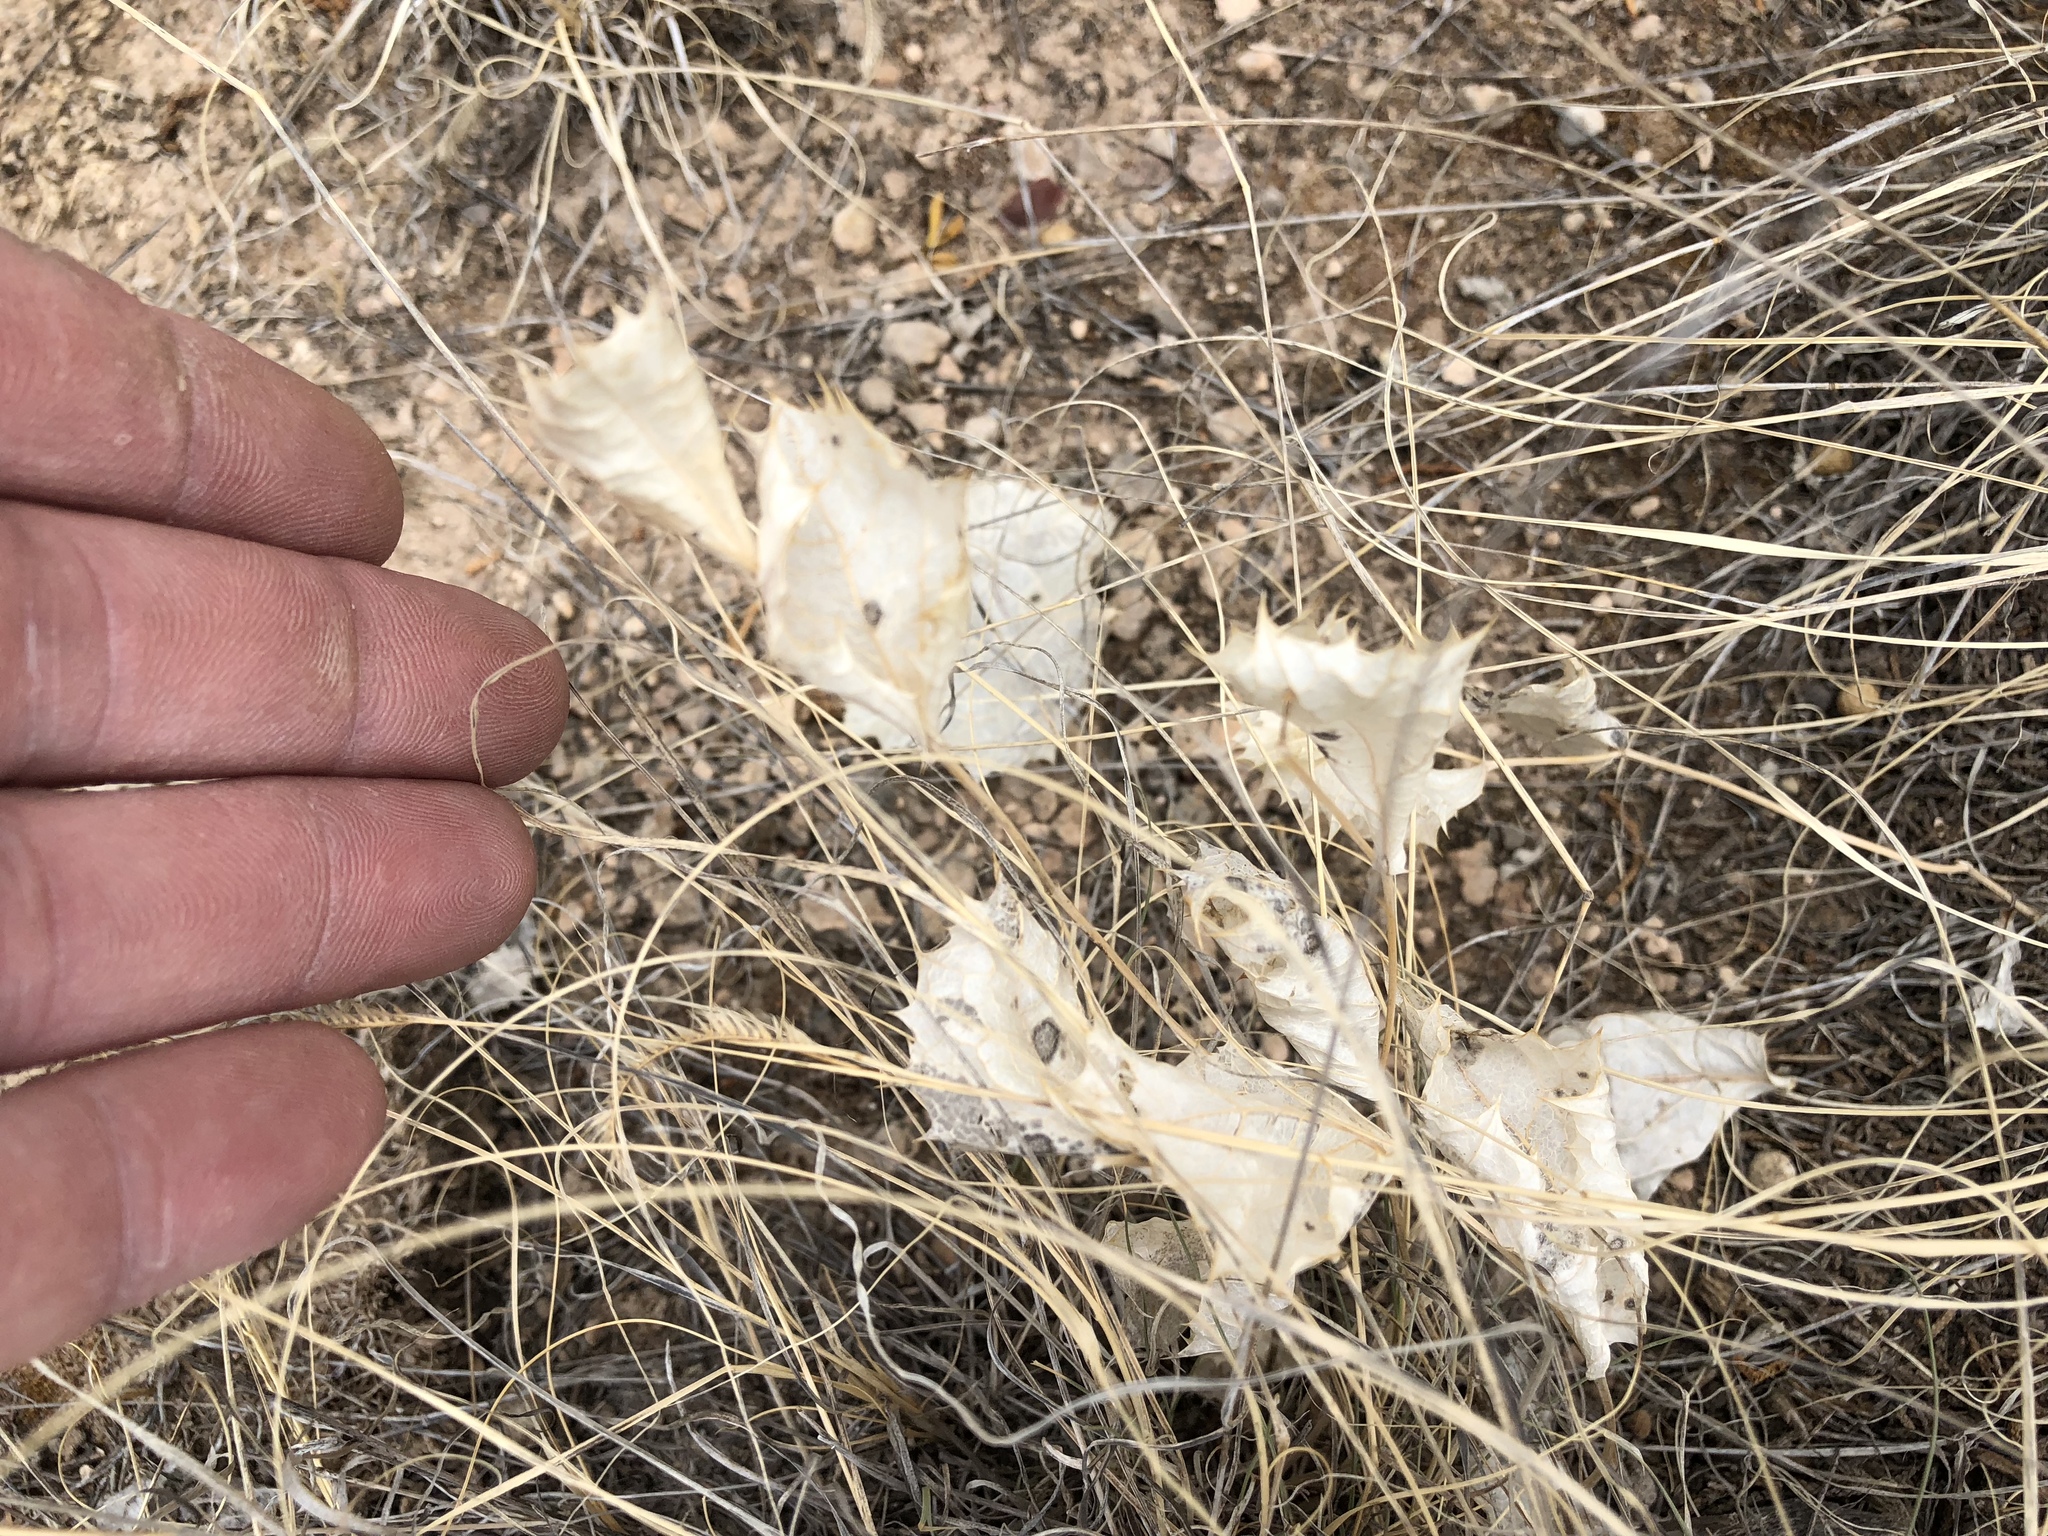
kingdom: Plantae
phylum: Tracheophyta
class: Magnoliopsida
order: Asterales
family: Asteraceae
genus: Acourtia
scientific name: Acourtia nana
